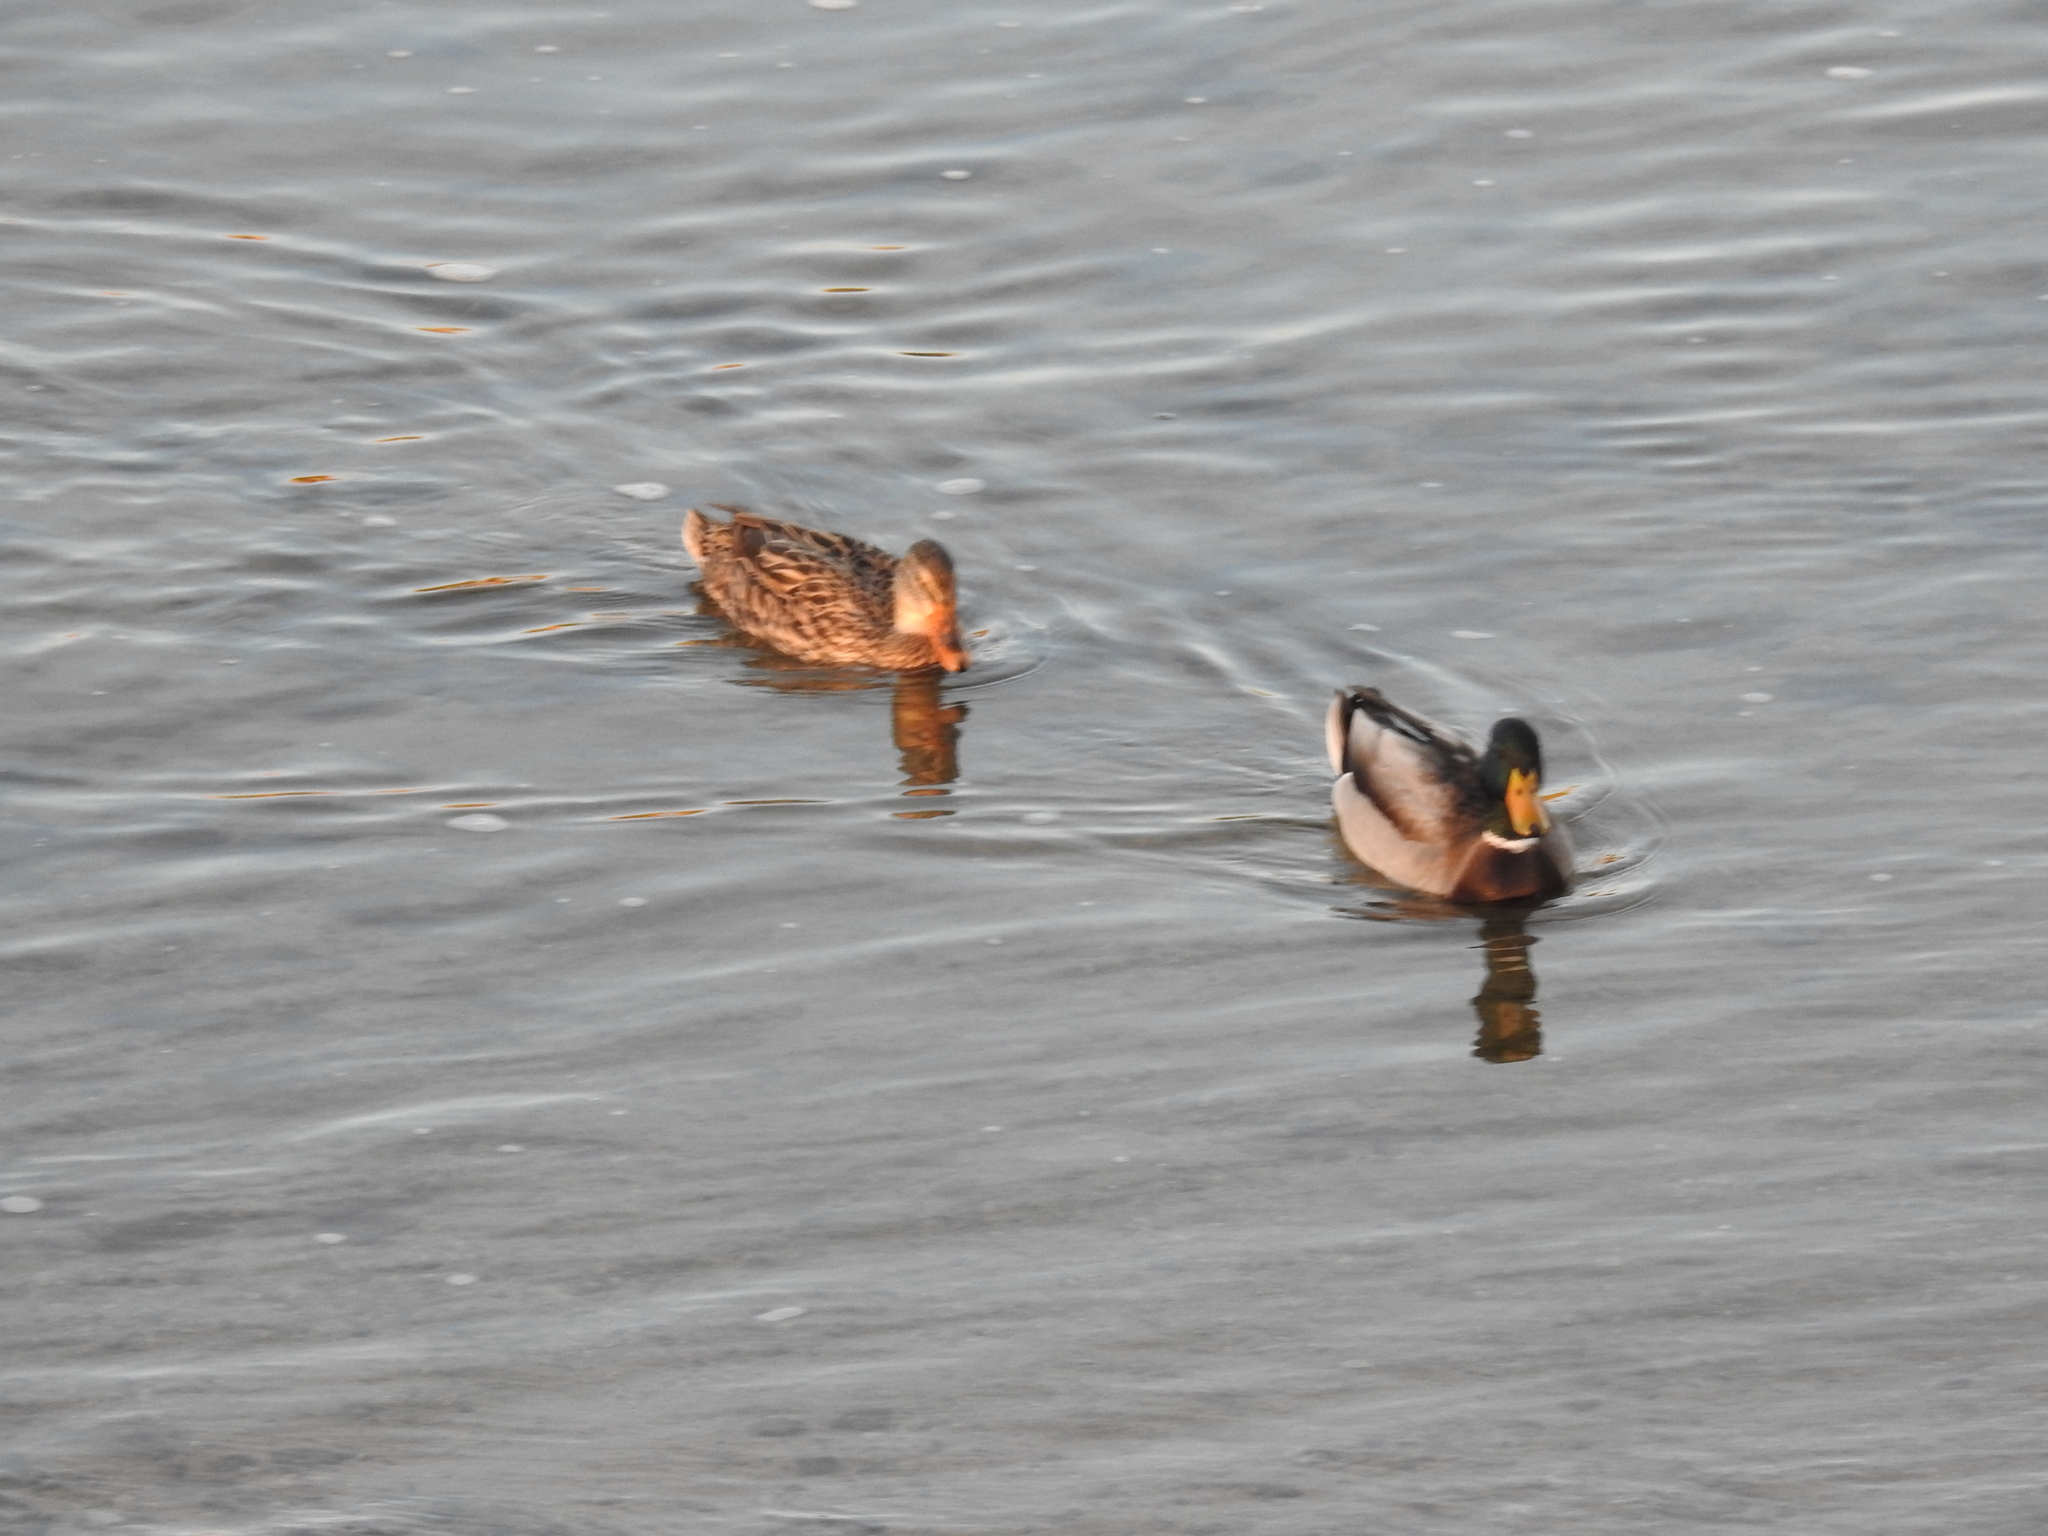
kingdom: Animalia
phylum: Chordata
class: Aves
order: Anseriformes
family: Anatidae
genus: Anas
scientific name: Anas platyrhynchos
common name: Mallard
